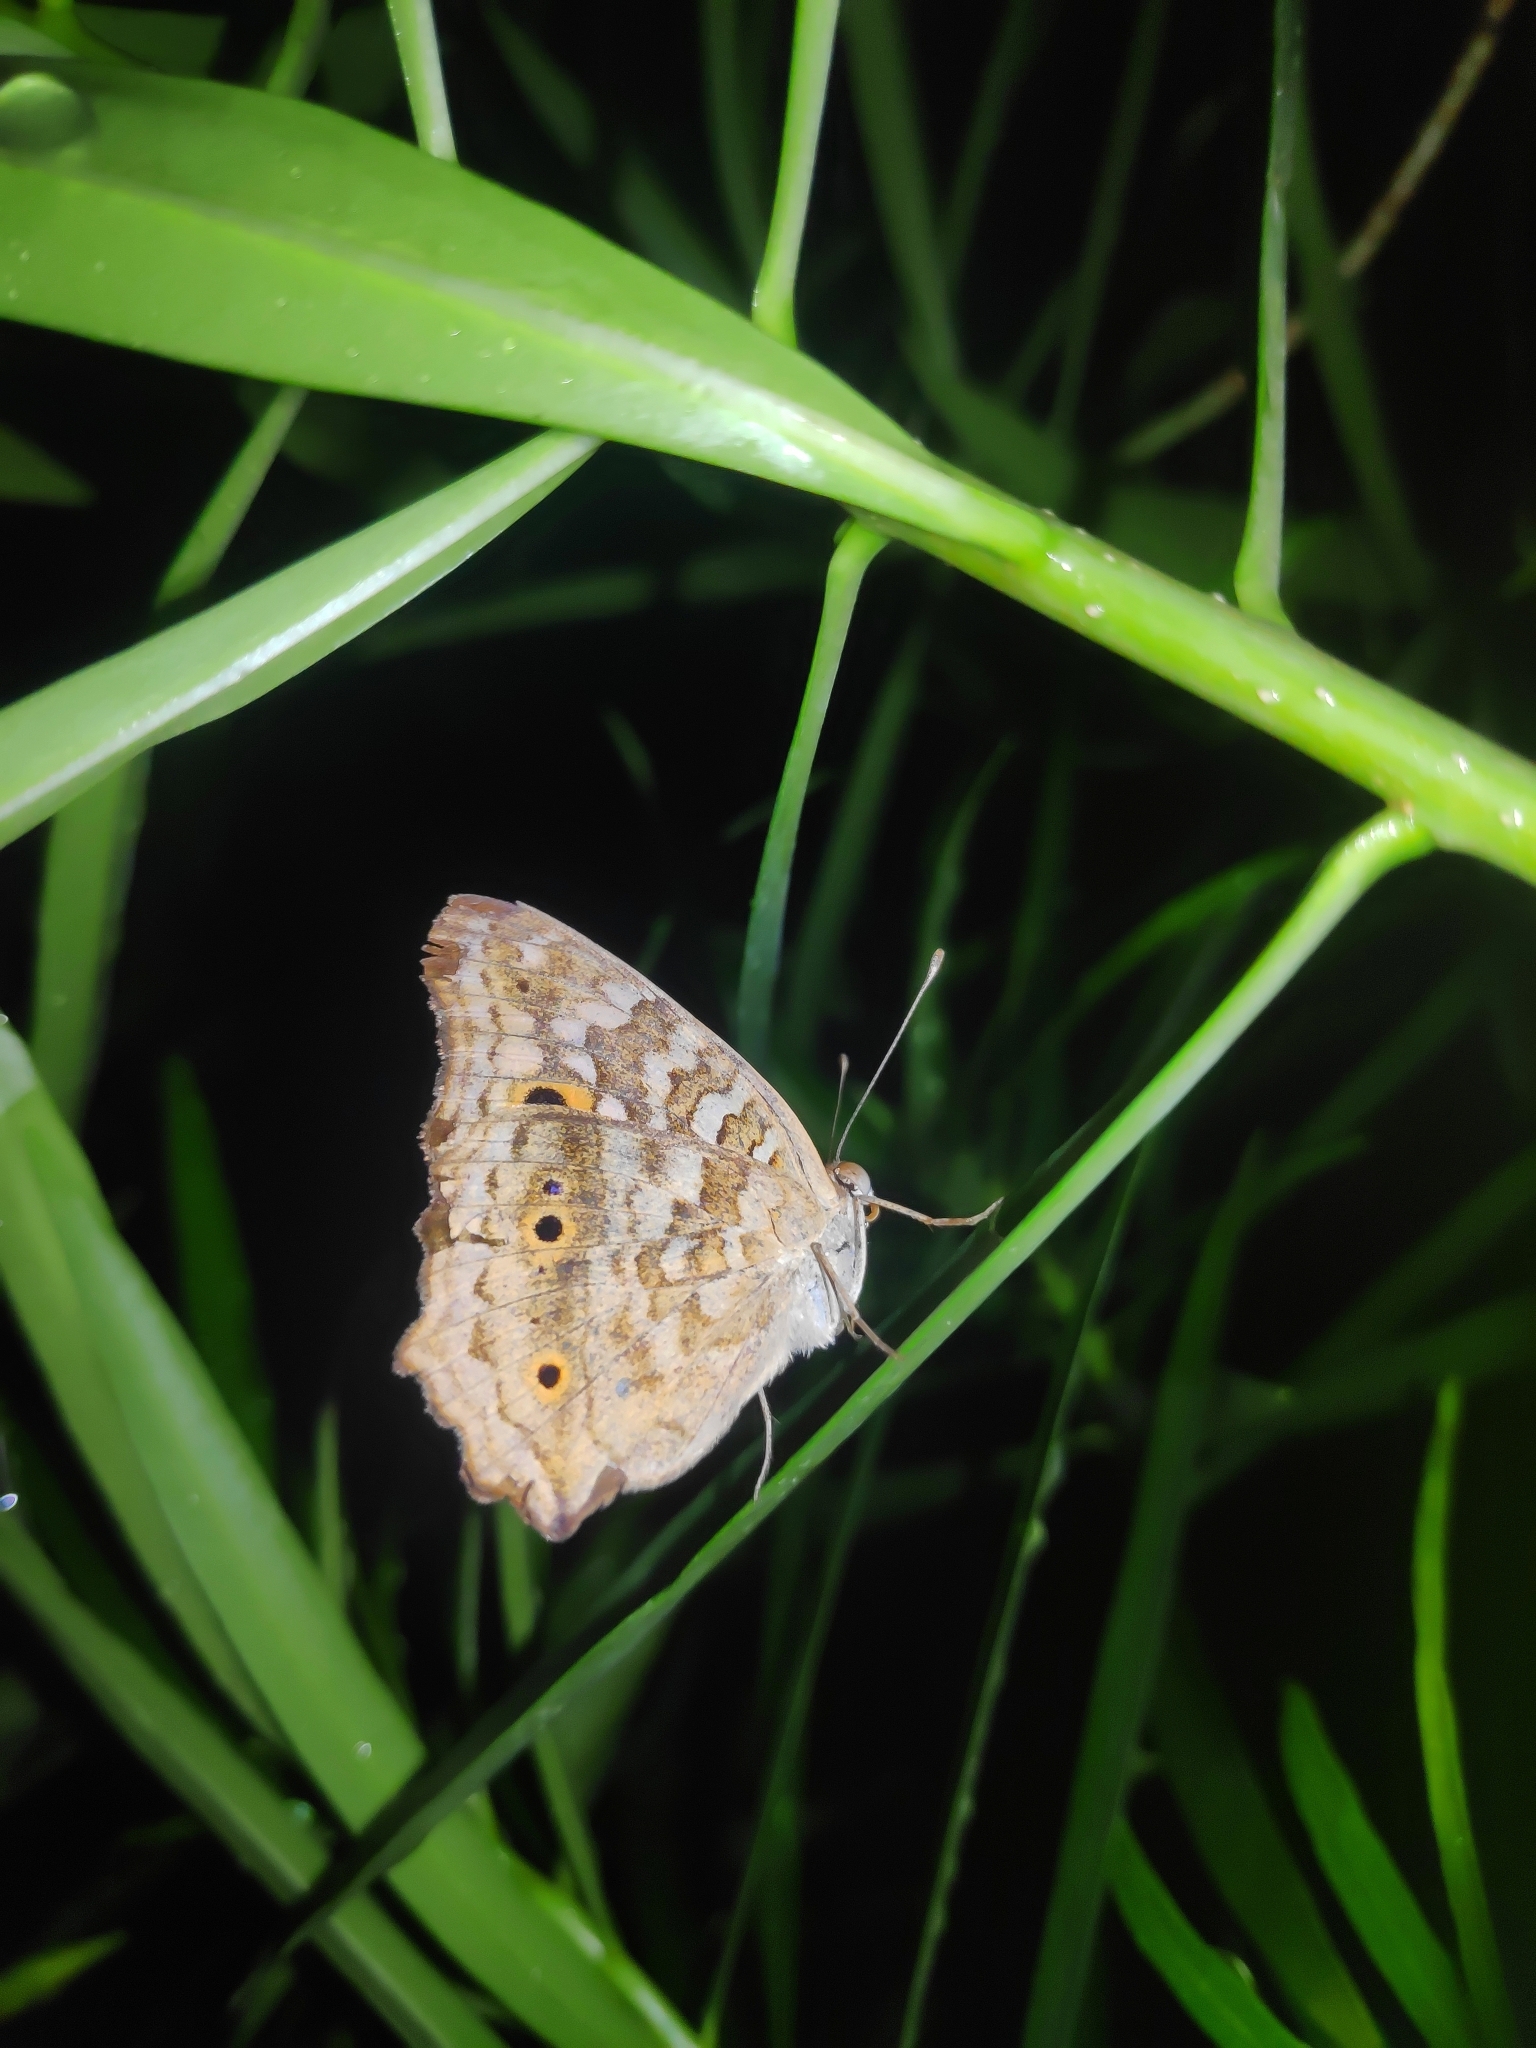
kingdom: Animalia
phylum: Arthropoda
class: Insecta
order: Lepidoptera
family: Nymphalidae
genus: Junonia
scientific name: Junonia lemonias
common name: Lemon pansy
